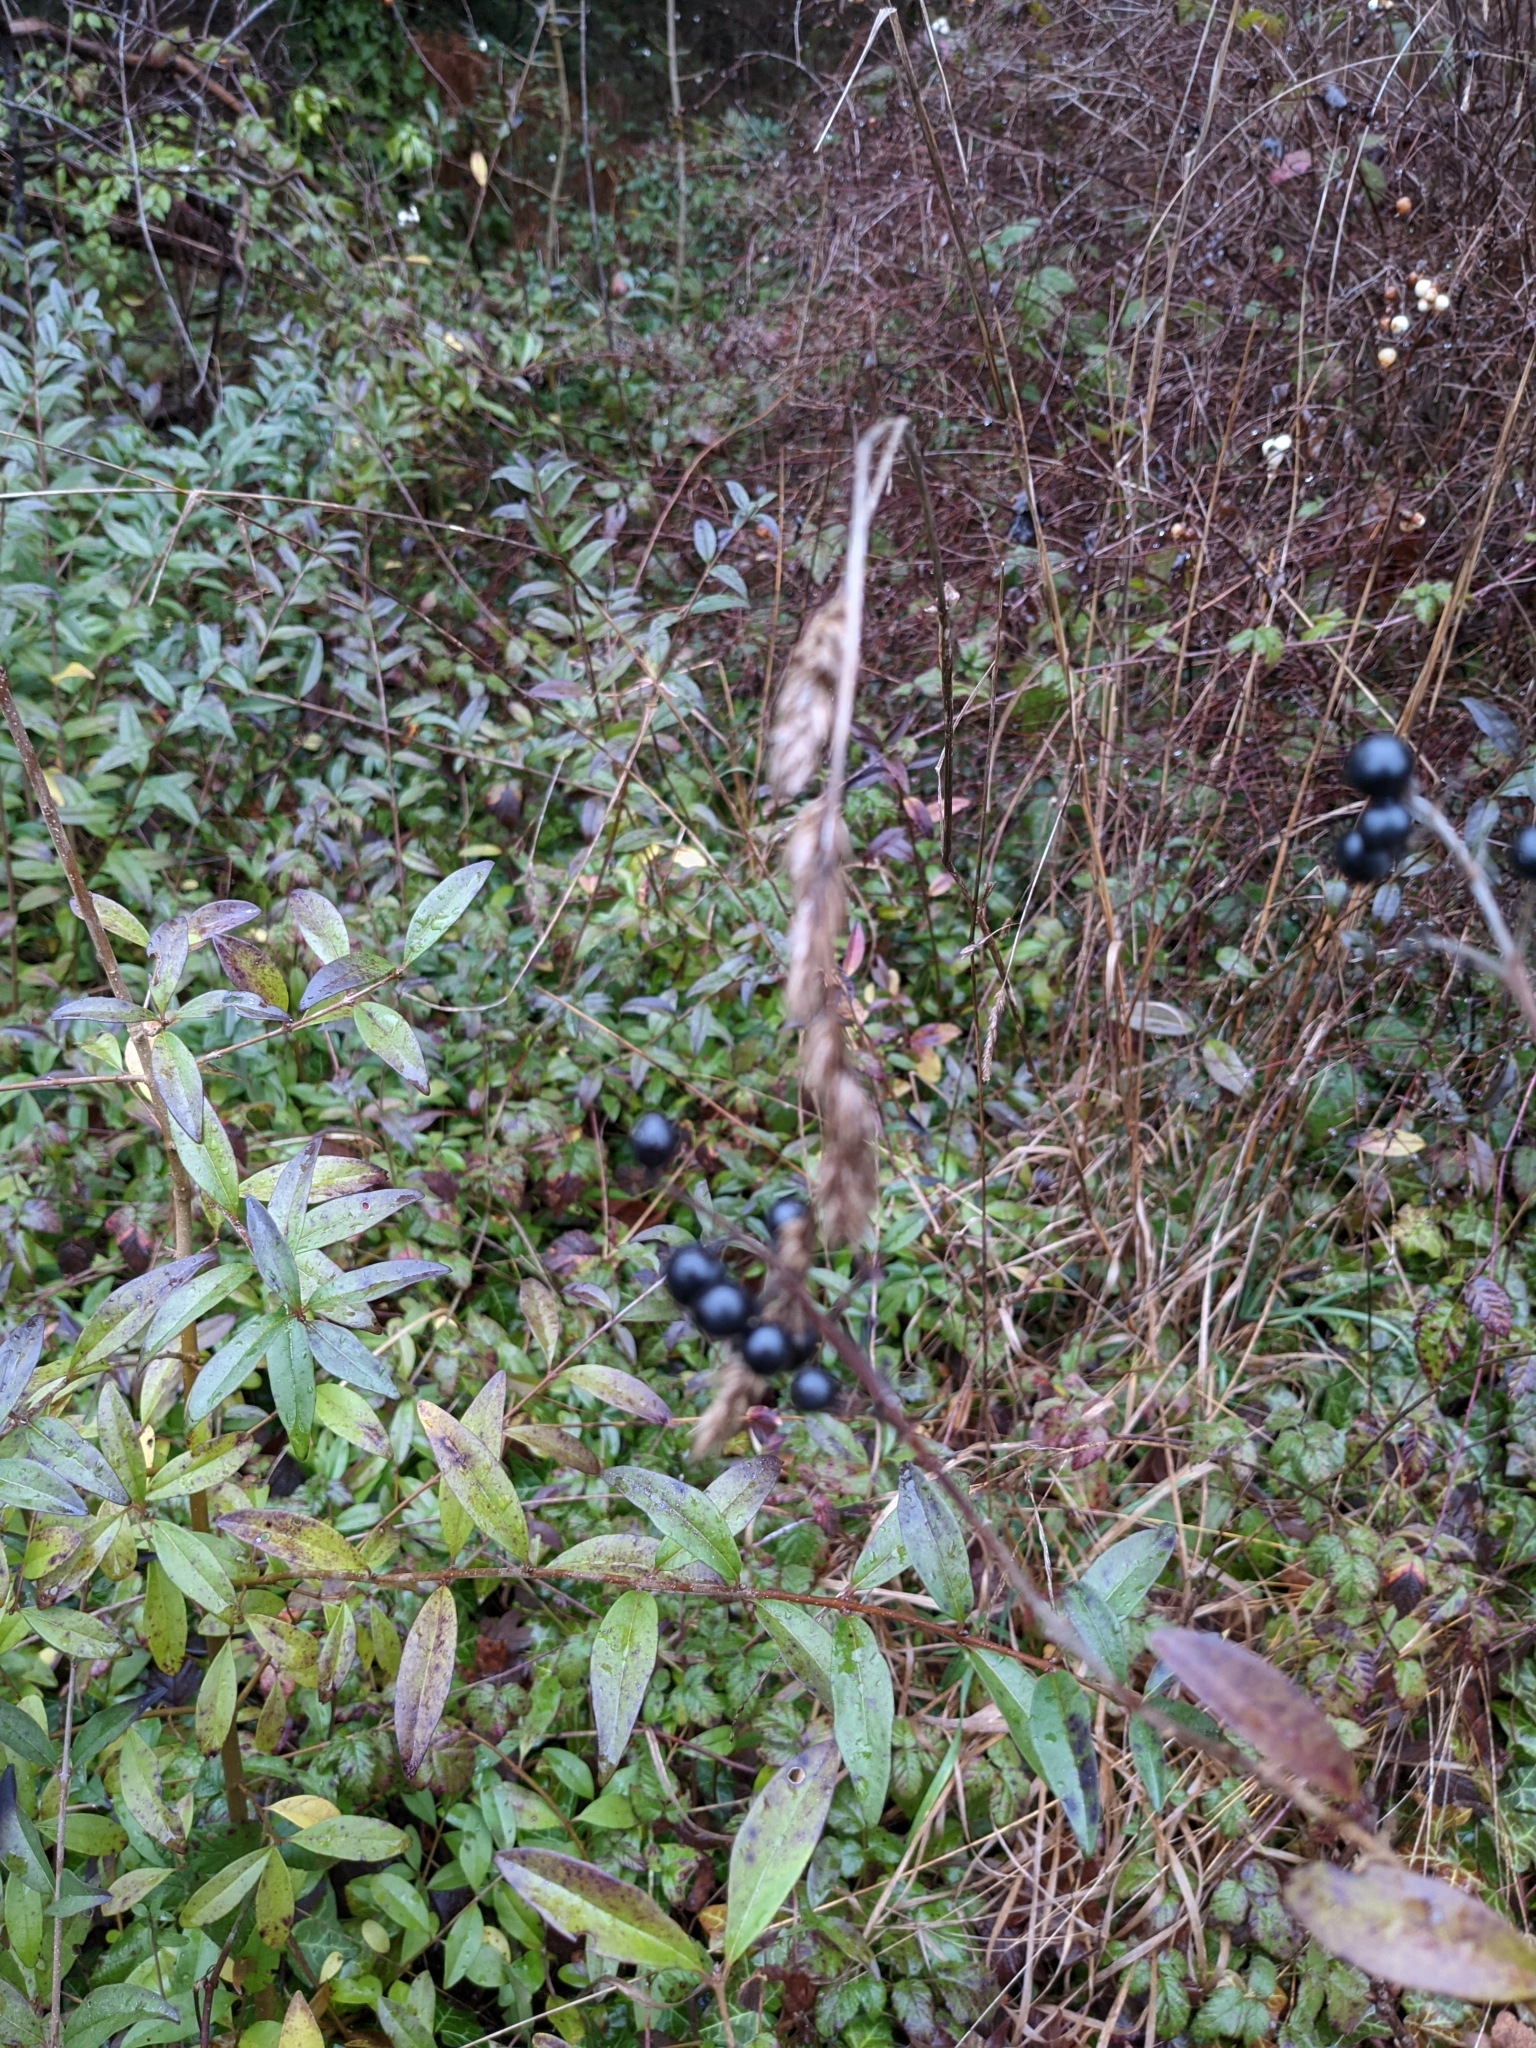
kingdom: Plantae
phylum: Tracheophyta
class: Magnoliopsida
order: Lamiales
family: Oleaceae
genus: Ligustrum
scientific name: Ligustrum vulgare
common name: Wild privet
